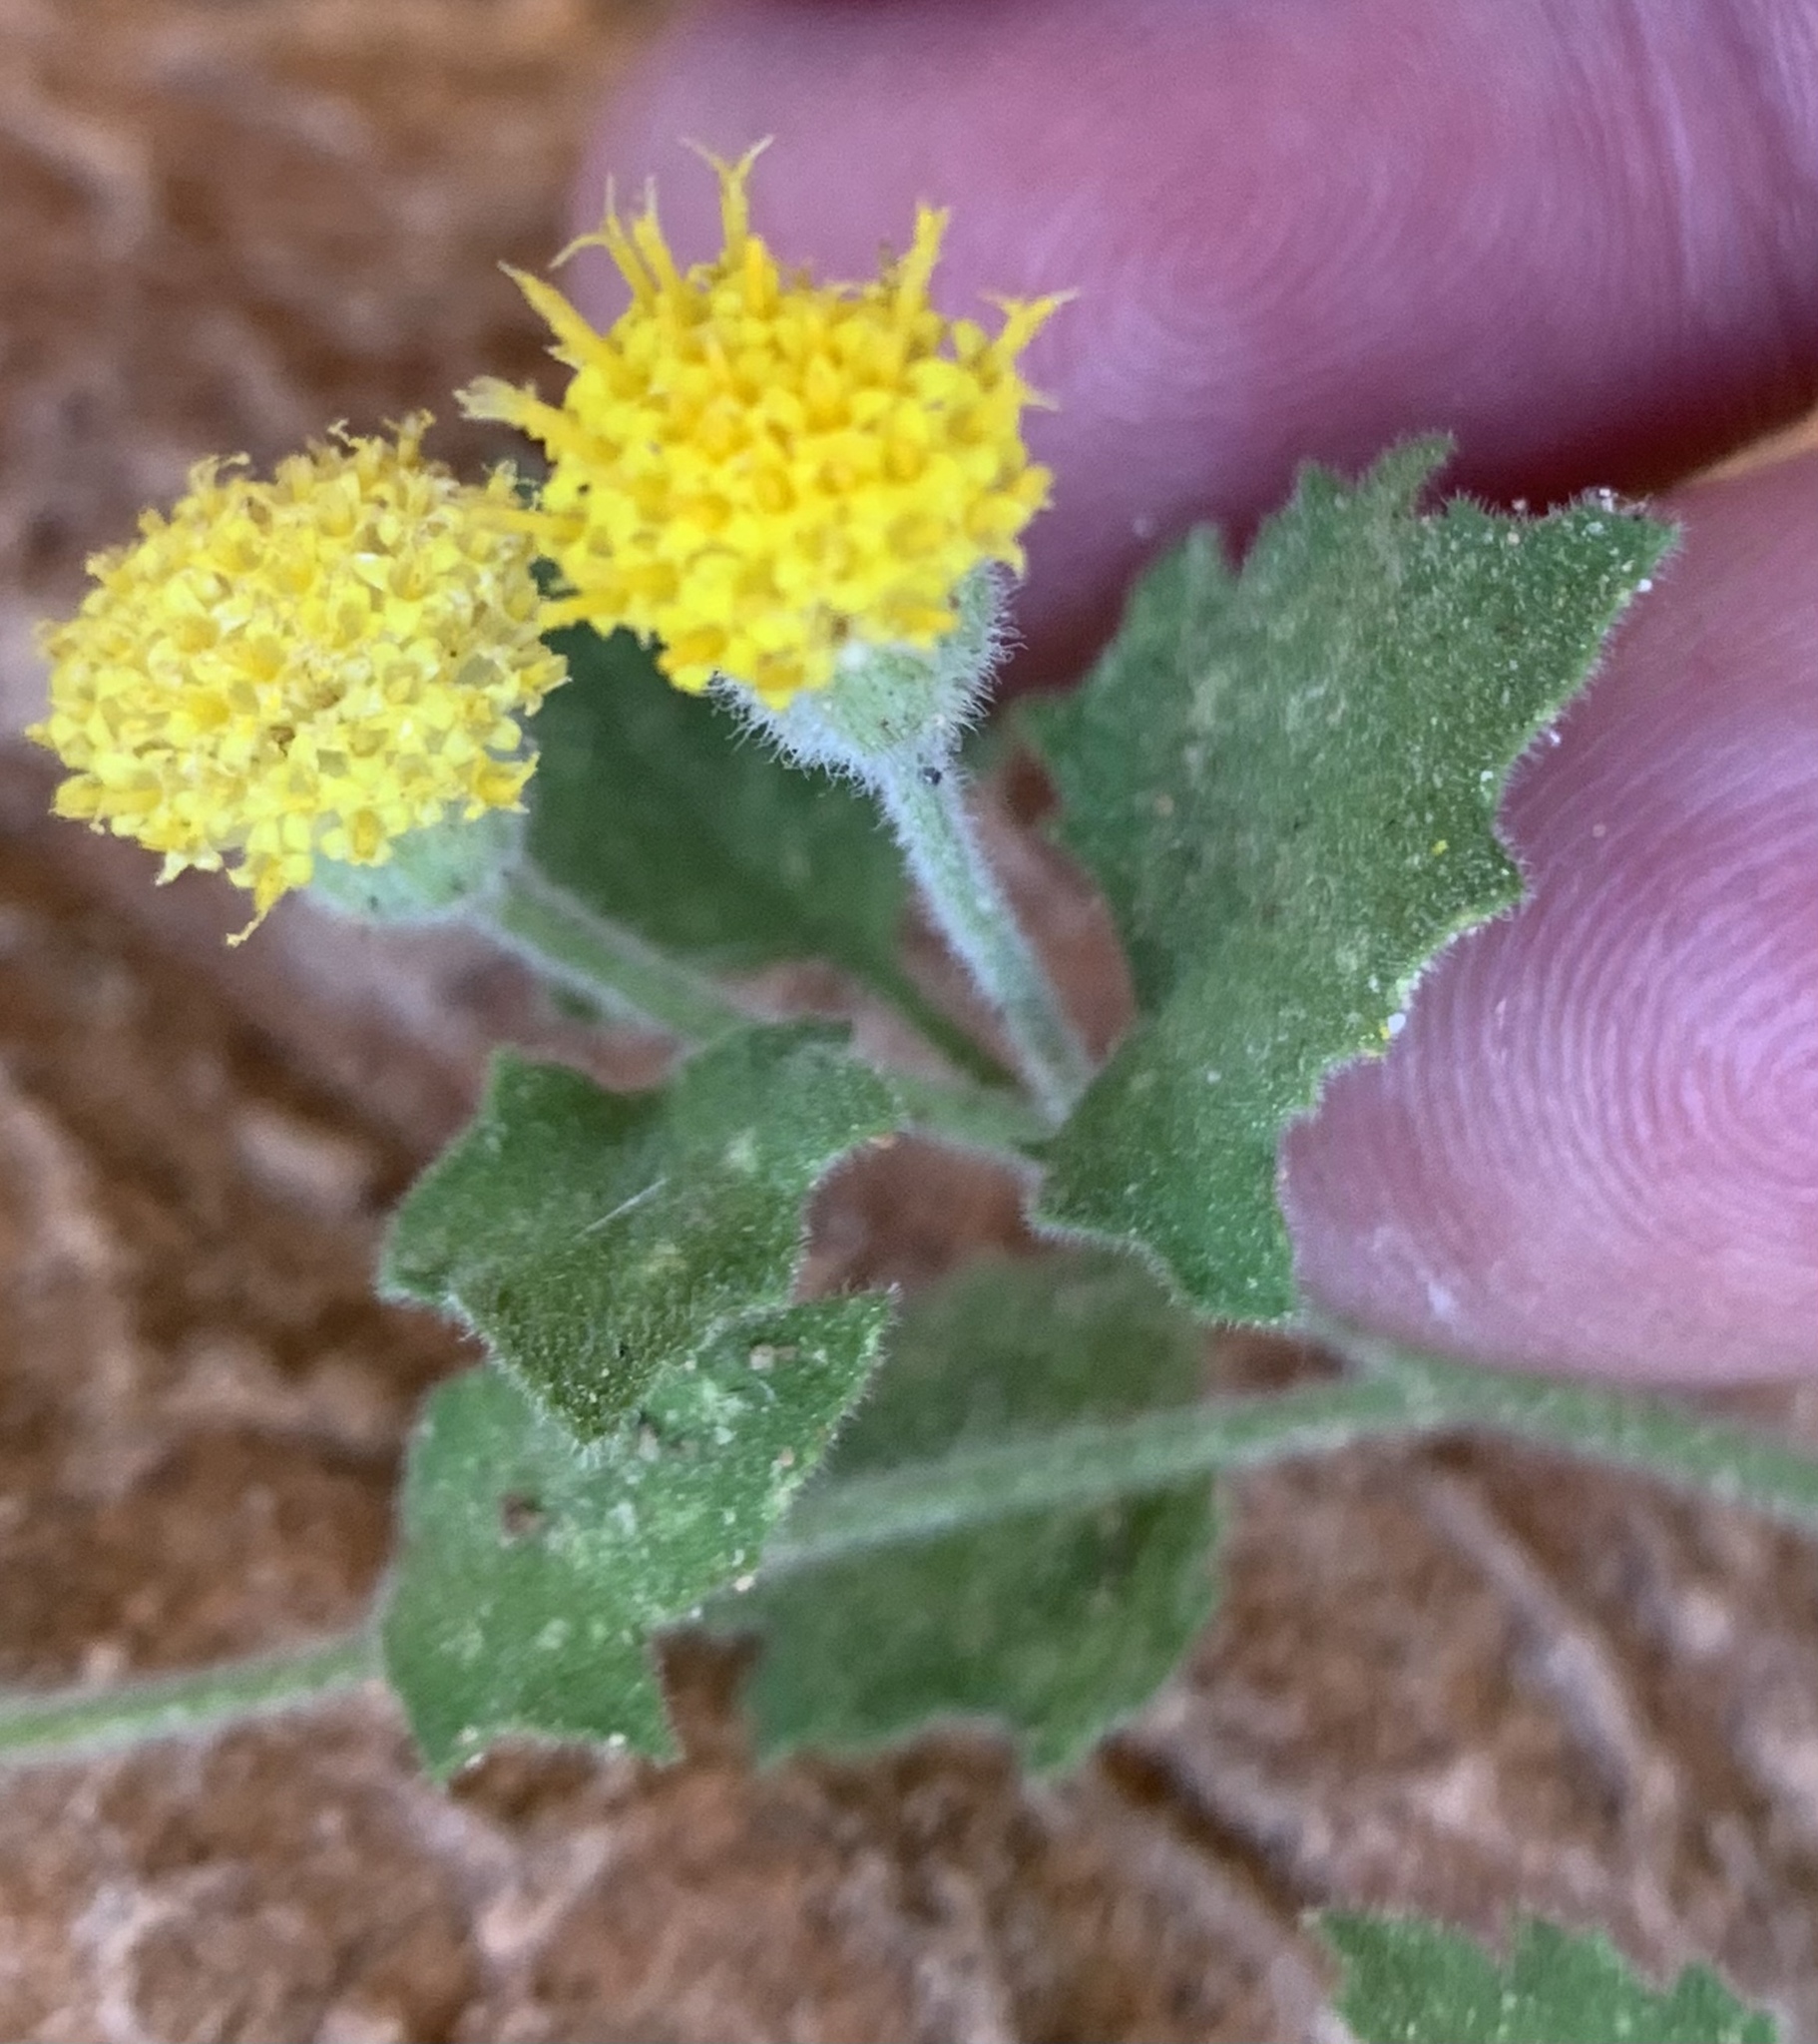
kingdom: Plantae
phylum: Tracheophyta
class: Magnoliopsida
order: Asterales
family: Asteraceae
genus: Laphamia
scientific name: Laphamia sanchezii
